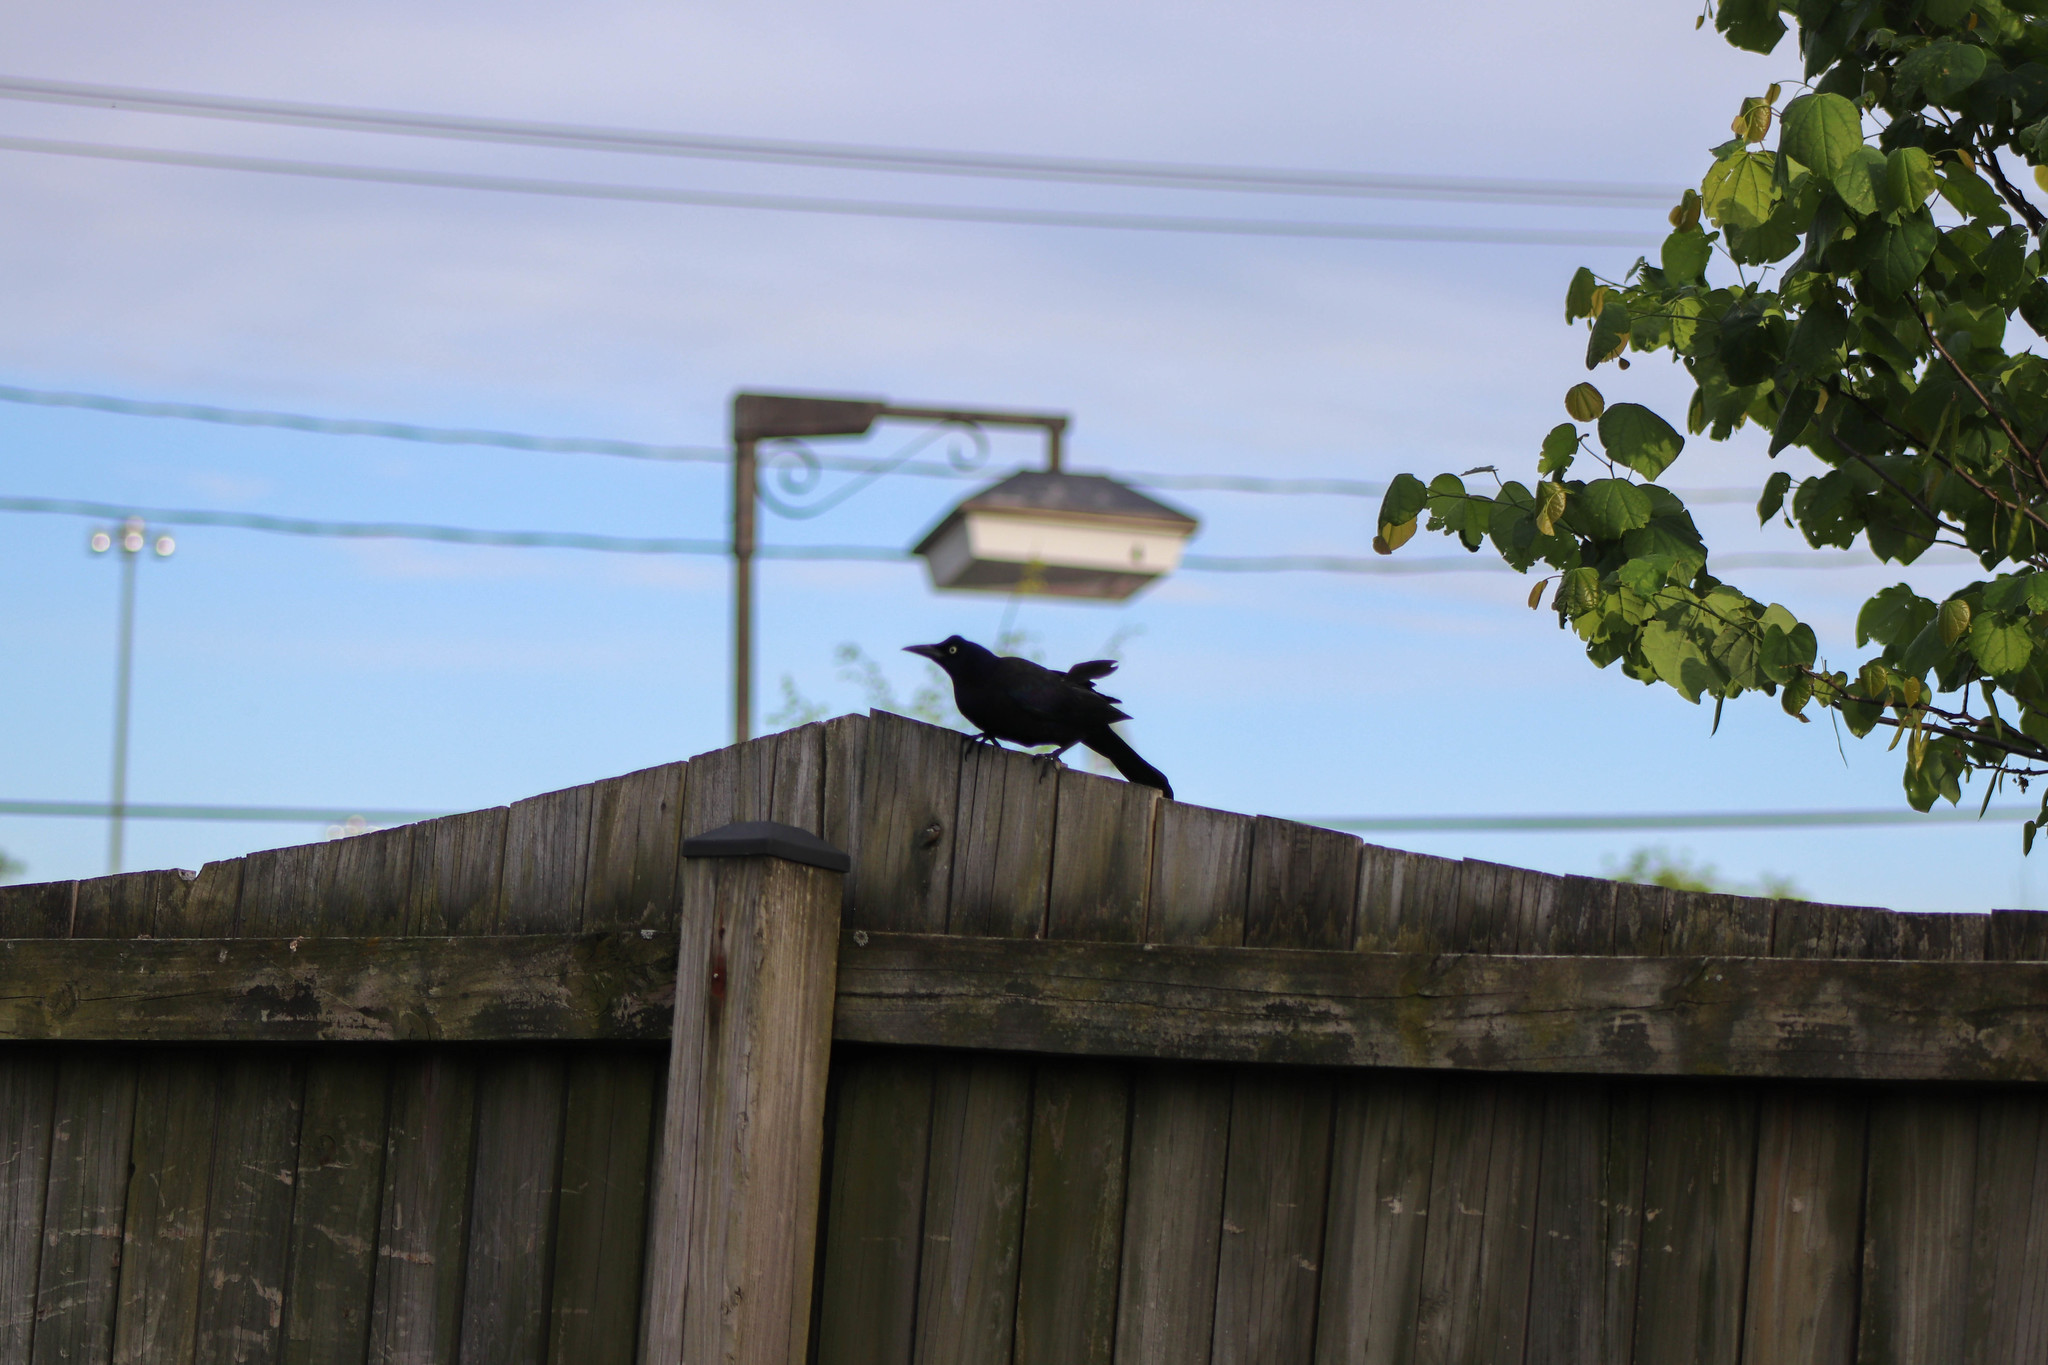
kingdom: Animalia
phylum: Chordata
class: Aves
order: Passeriformes
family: Icteridae
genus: Quiscalus
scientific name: Quiscalus quiscula
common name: Common grackle
